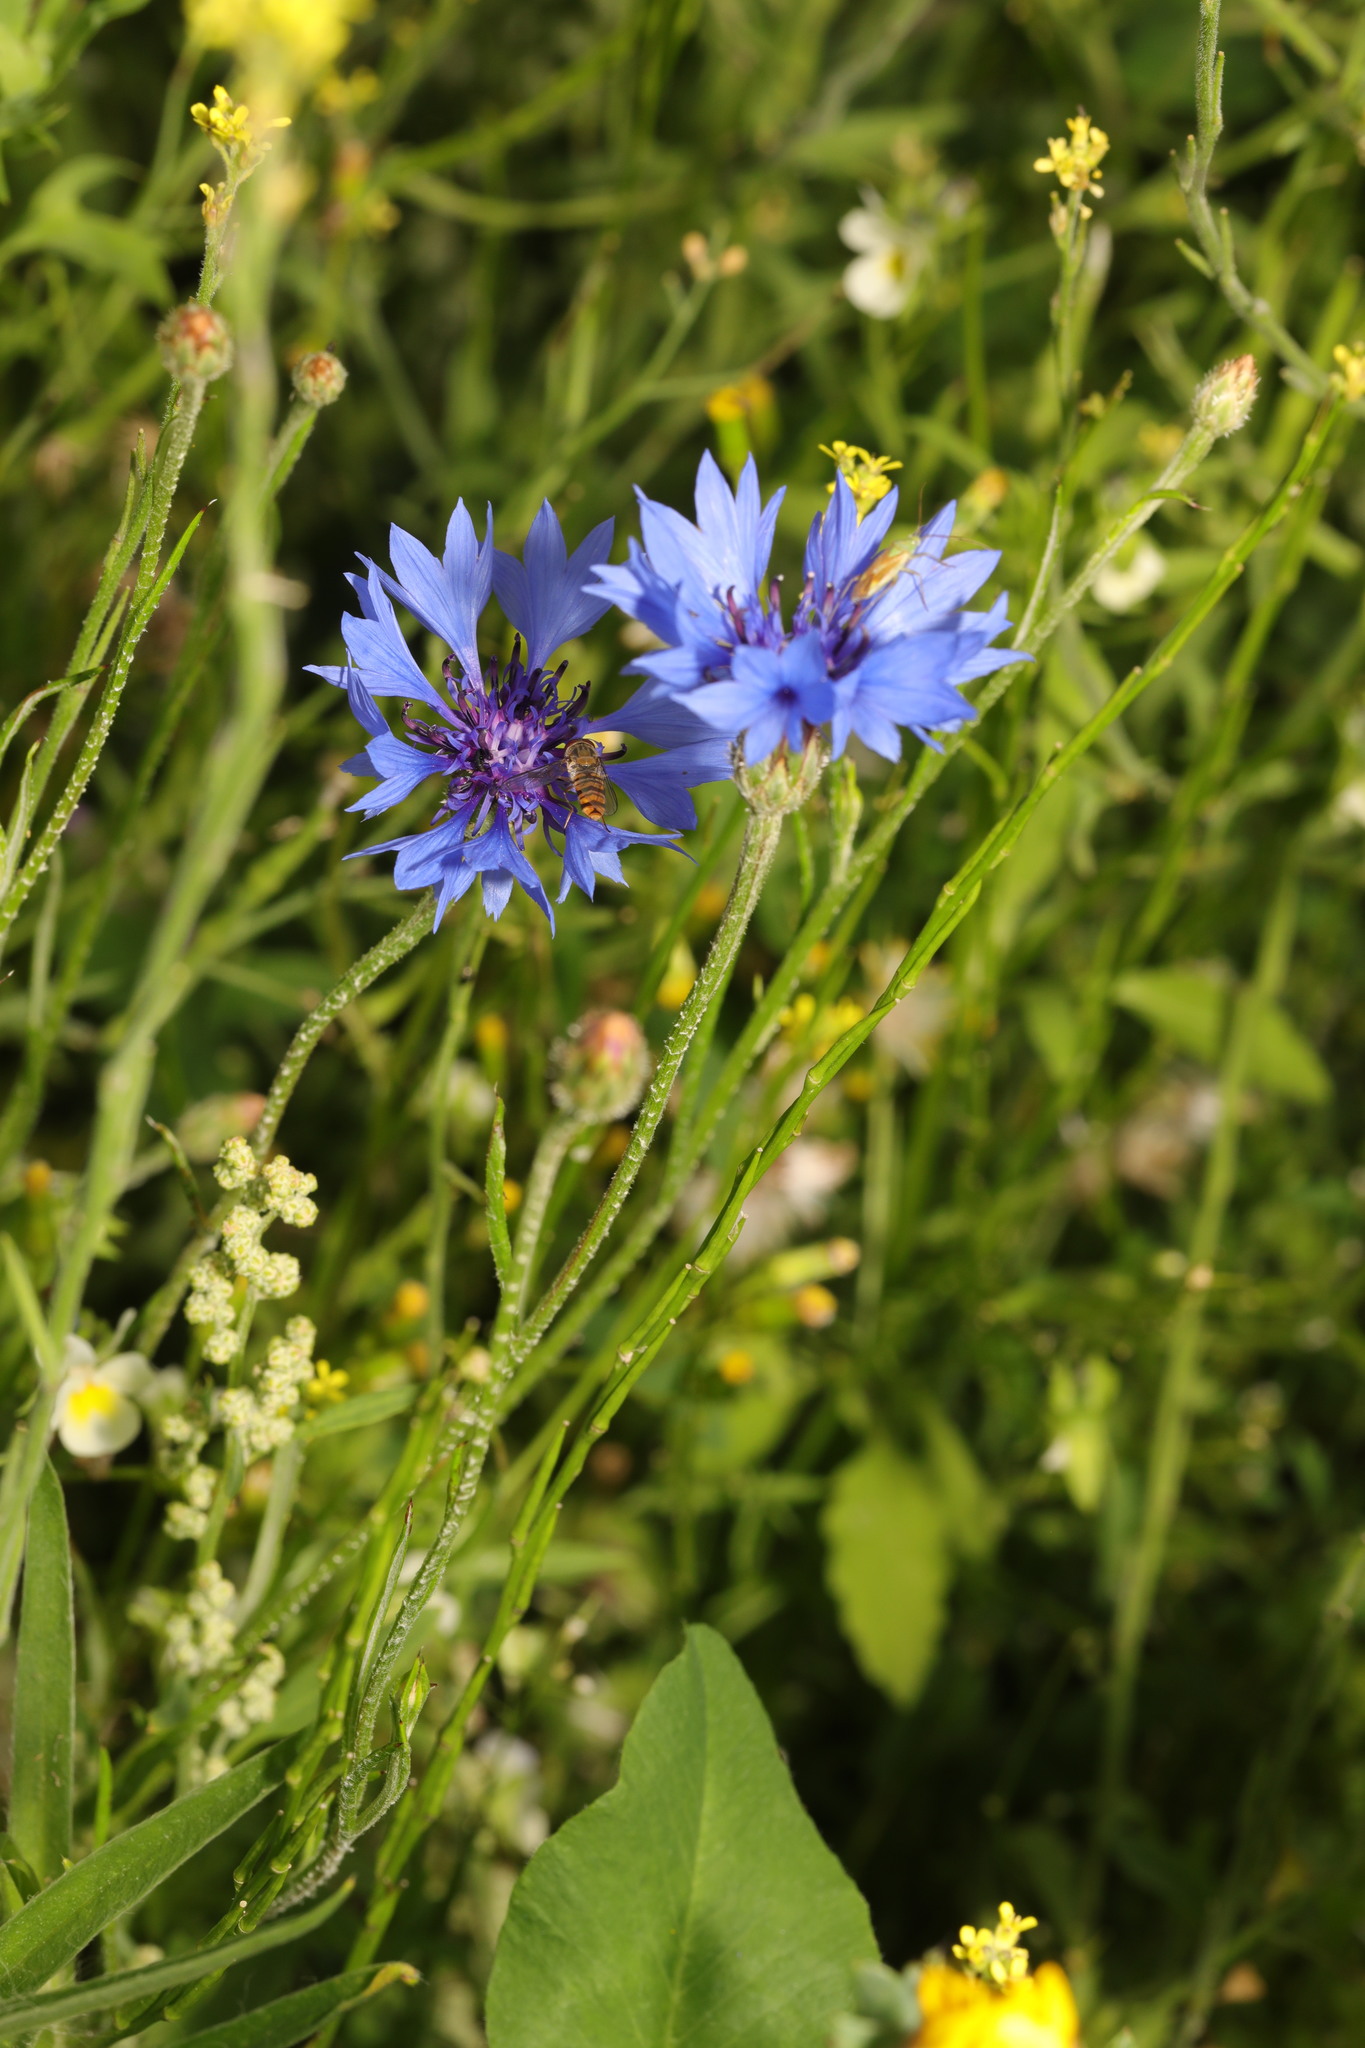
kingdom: Plantae
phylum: Tracheophyta
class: Magnoliopsida
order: Asterales
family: Asteraceae
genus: Centaurea
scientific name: Centaurea cyanus
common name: Cornflower
